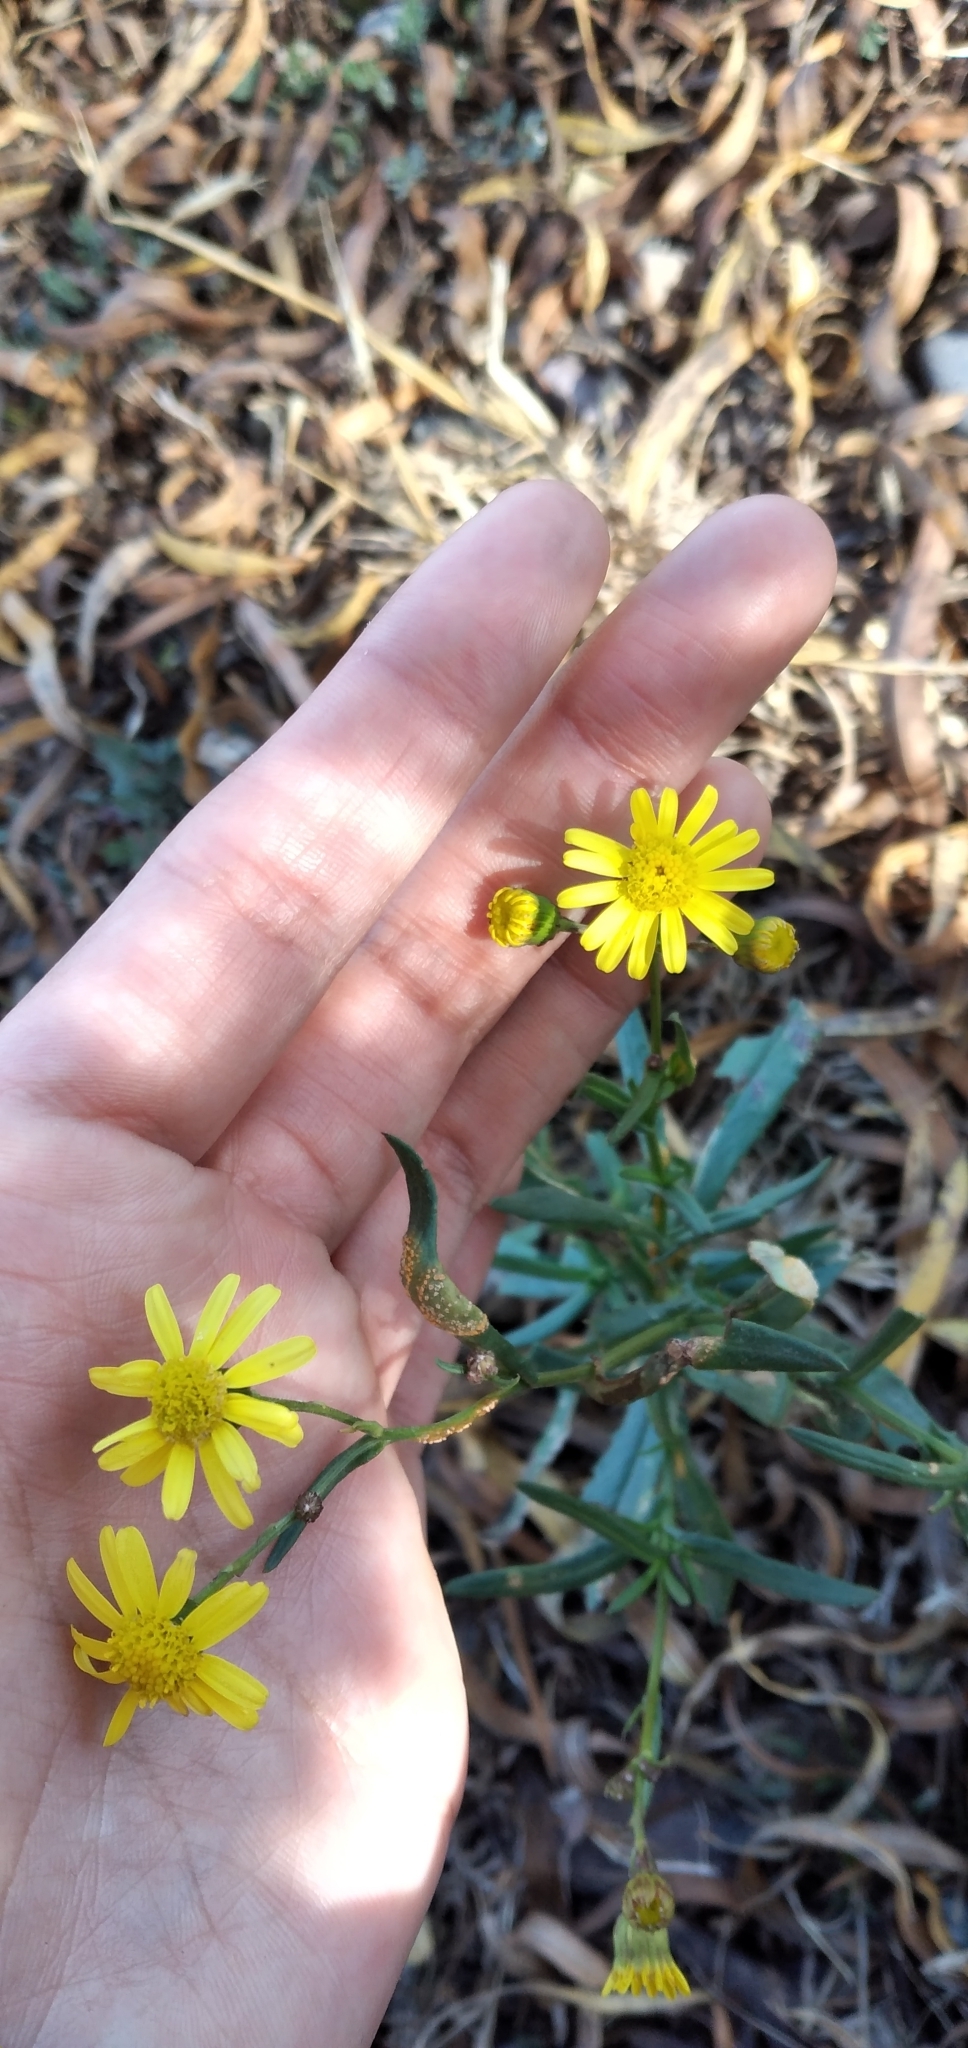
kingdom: Plantae
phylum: Tracheophyta
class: Magnoliopsida
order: Asterales
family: Asteraceae
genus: Senecio
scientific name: Senecio madagascariensis
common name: Madagascar ragwort
